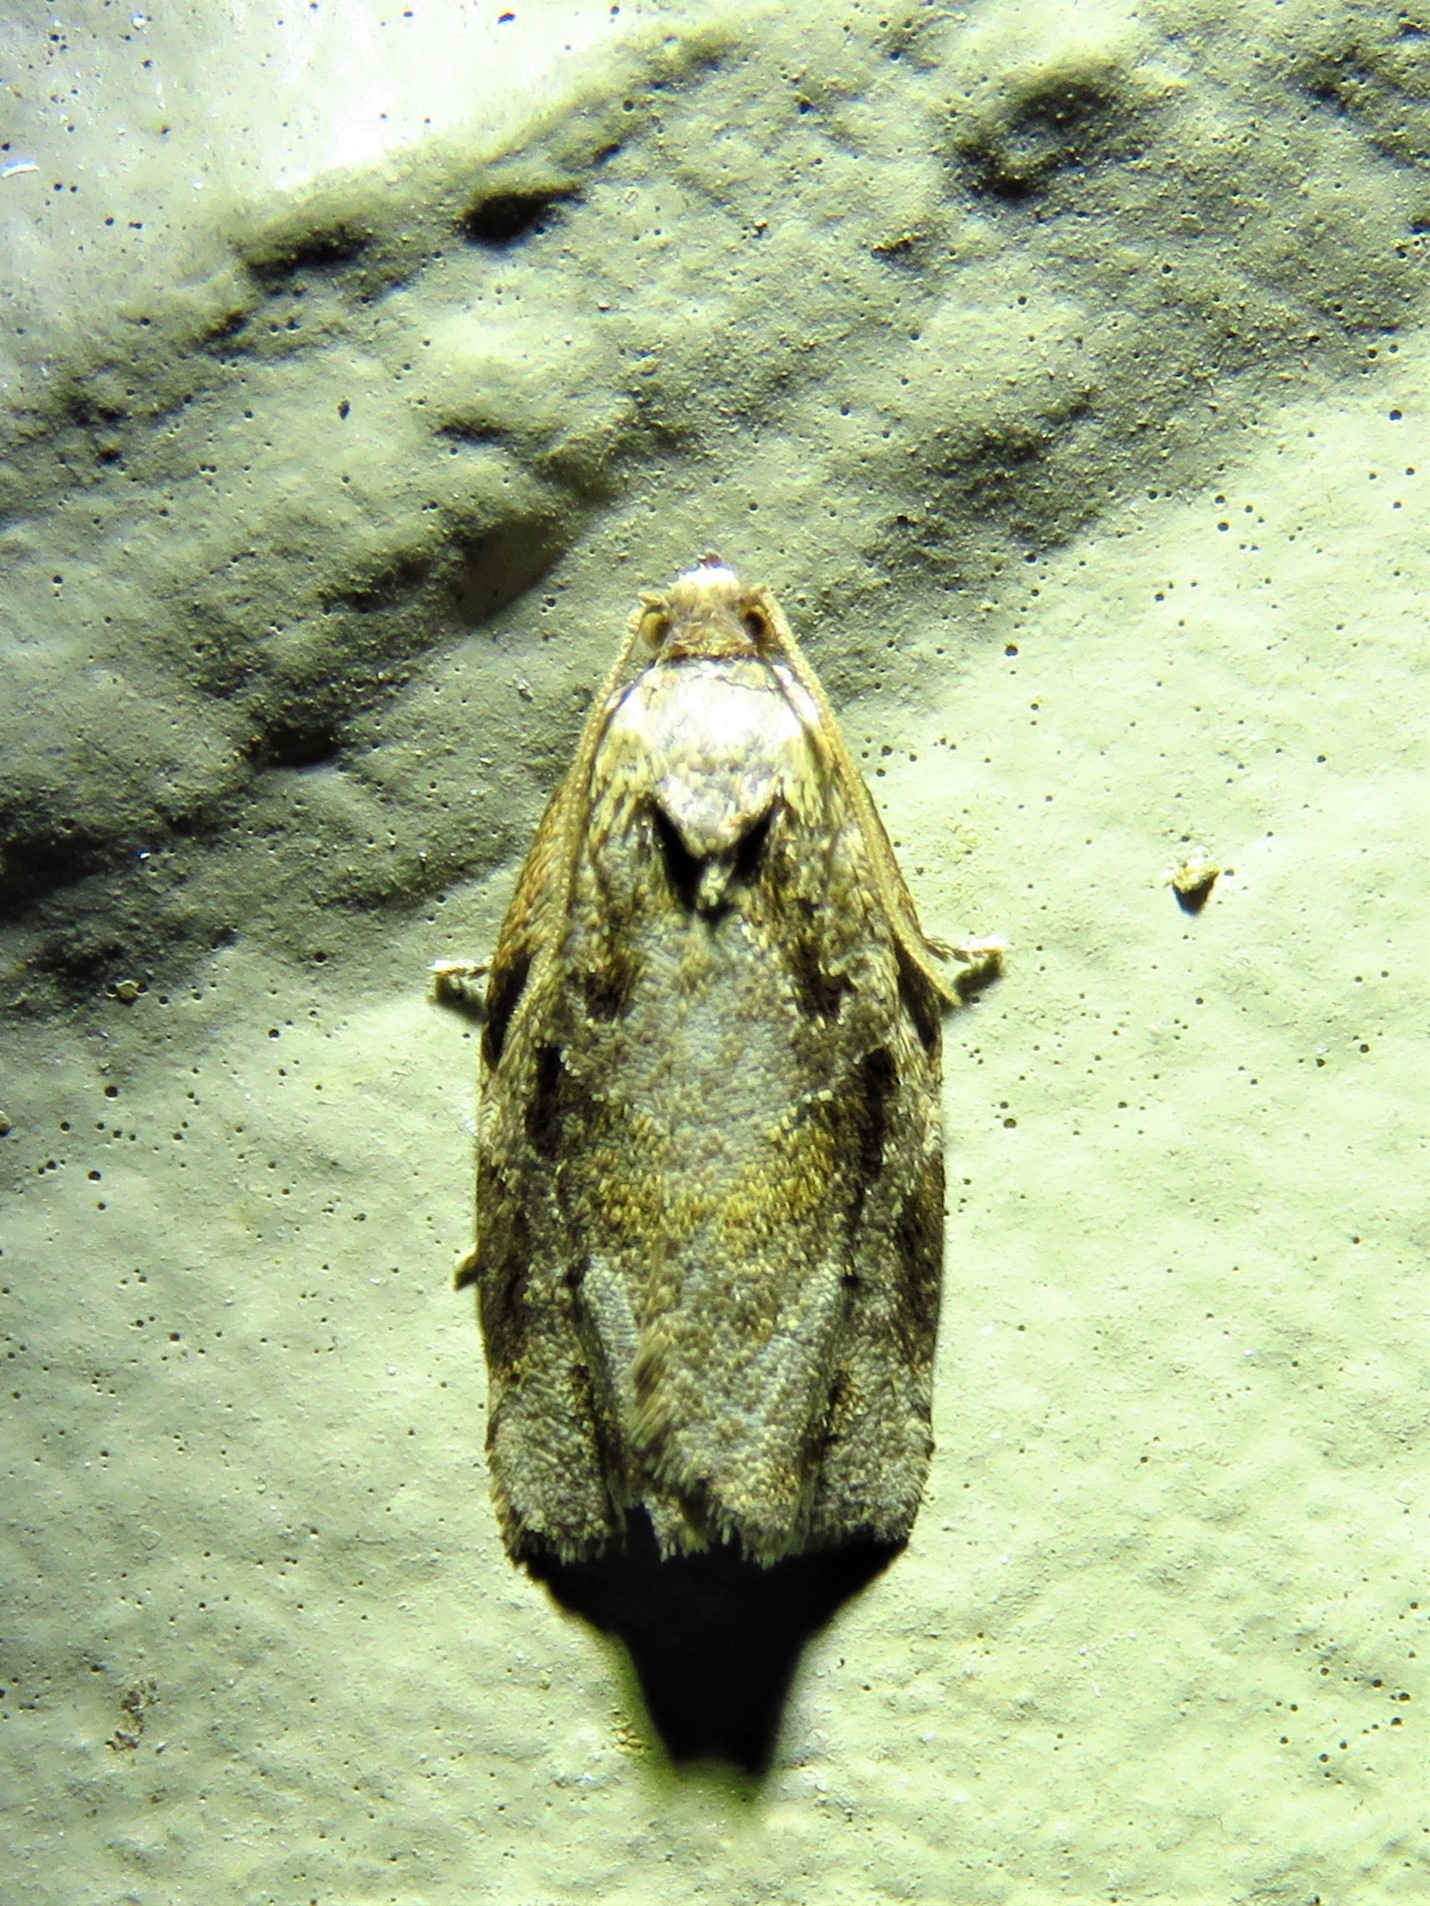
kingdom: Animalia
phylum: Arthropoda
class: Insecta
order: Lepidoptera
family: Tortricidae
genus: Archips
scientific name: Archips grisea
